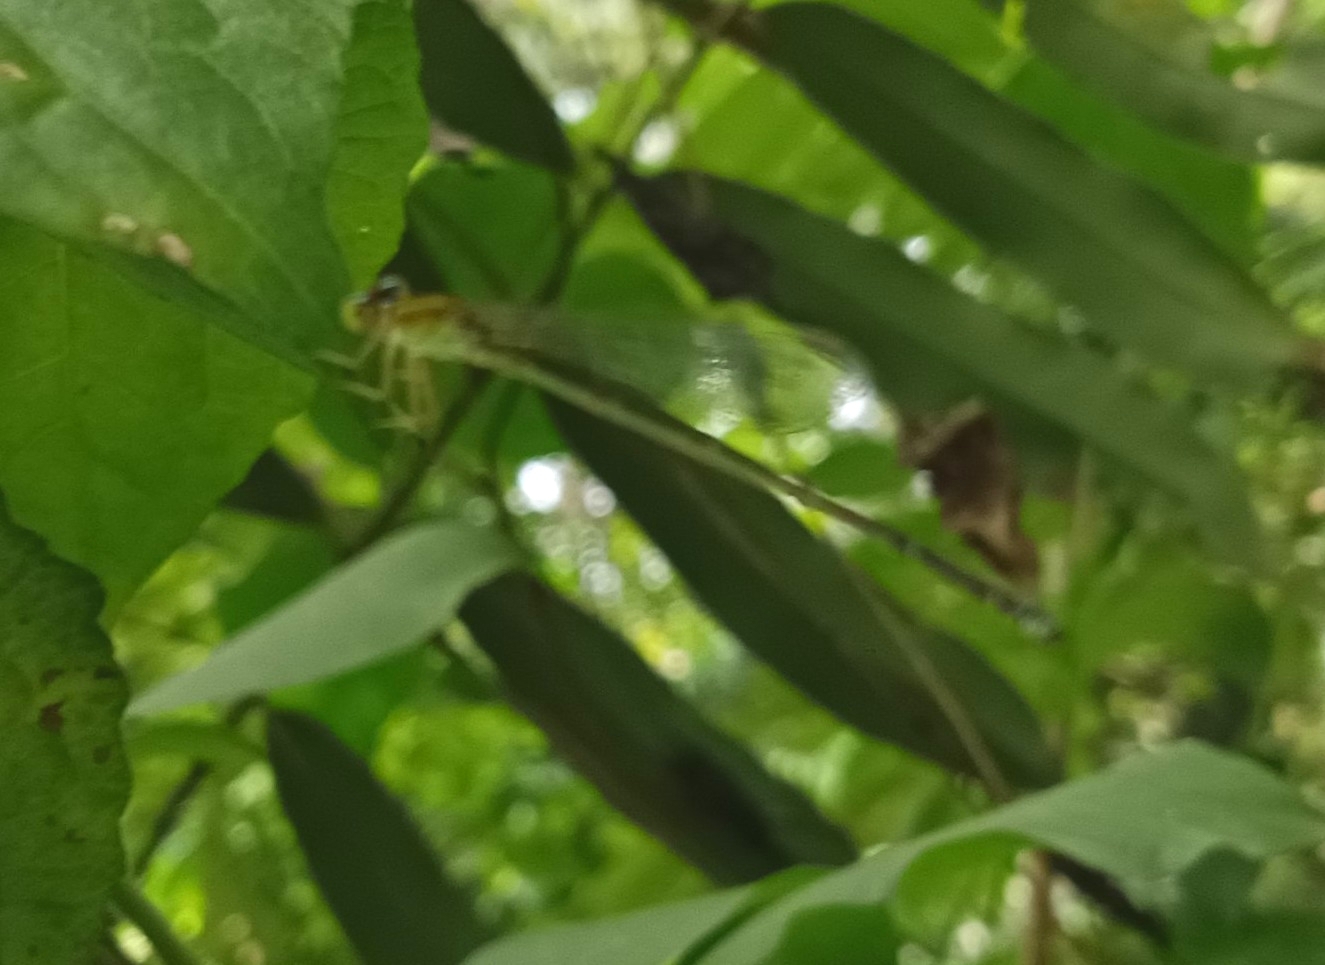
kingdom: Animalia
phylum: Arthropoda
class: Insecta
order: Odonata
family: Coenagrionidae
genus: Pseudagrion
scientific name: Pseudagrion microcephalum
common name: Blue riverdamsel
